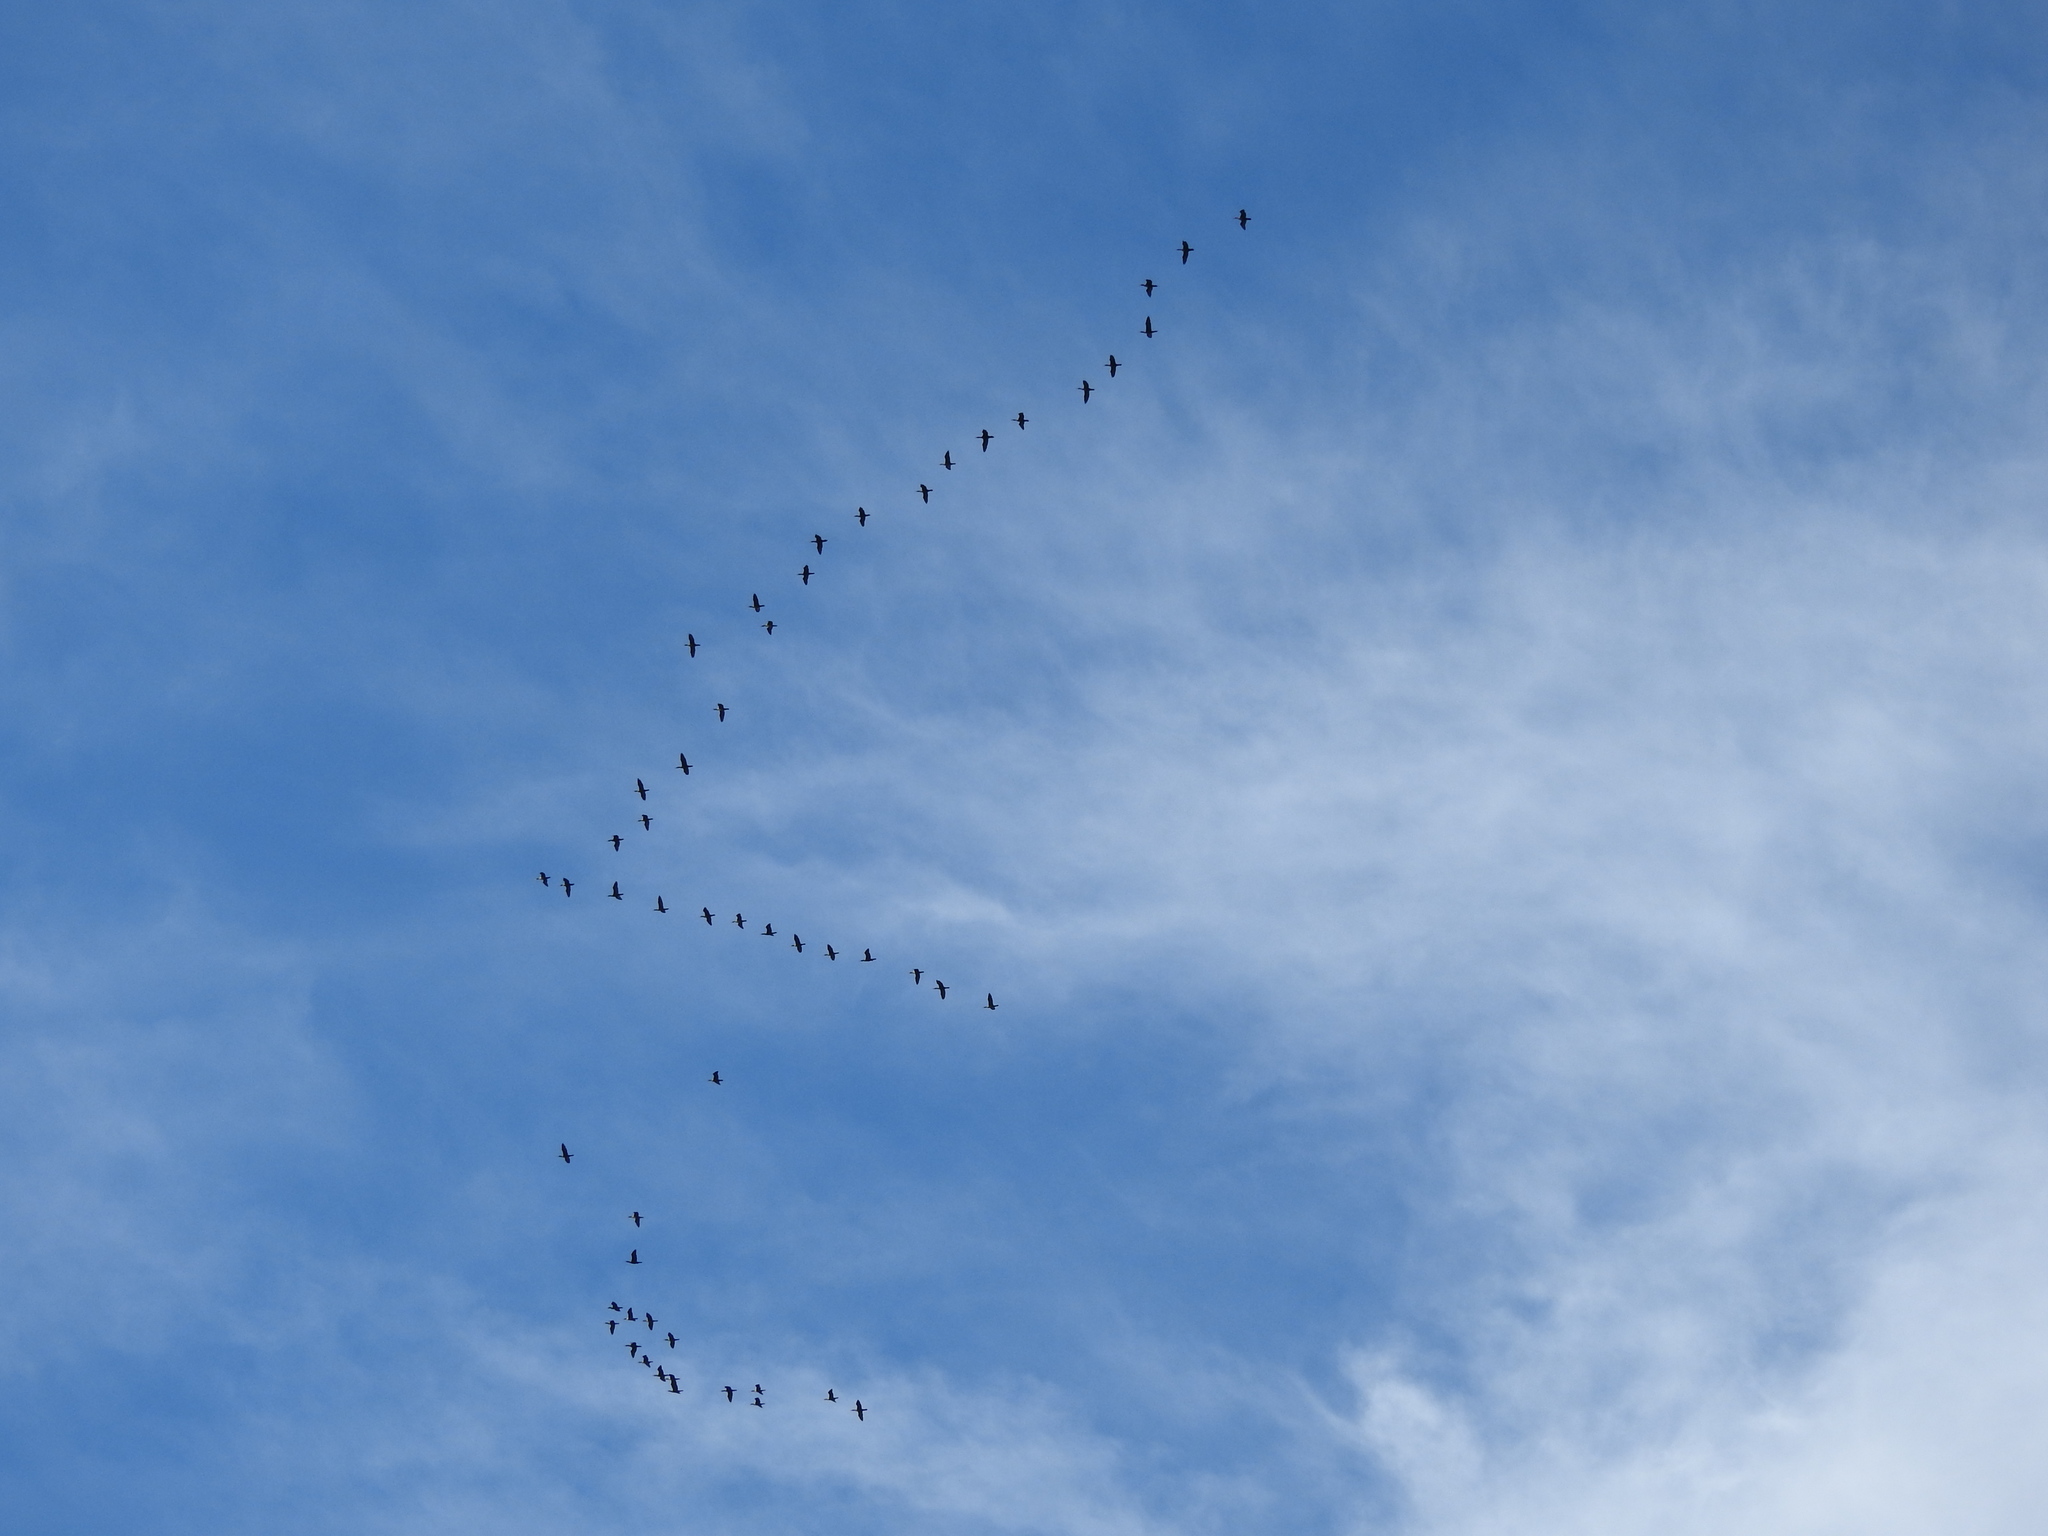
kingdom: Animalia
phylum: Chordata
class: Aves
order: Suliformes
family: Phalacrocoracidae
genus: Phalacrocorax
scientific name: Phalacrocorax auritus
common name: Double-crested cormorant
